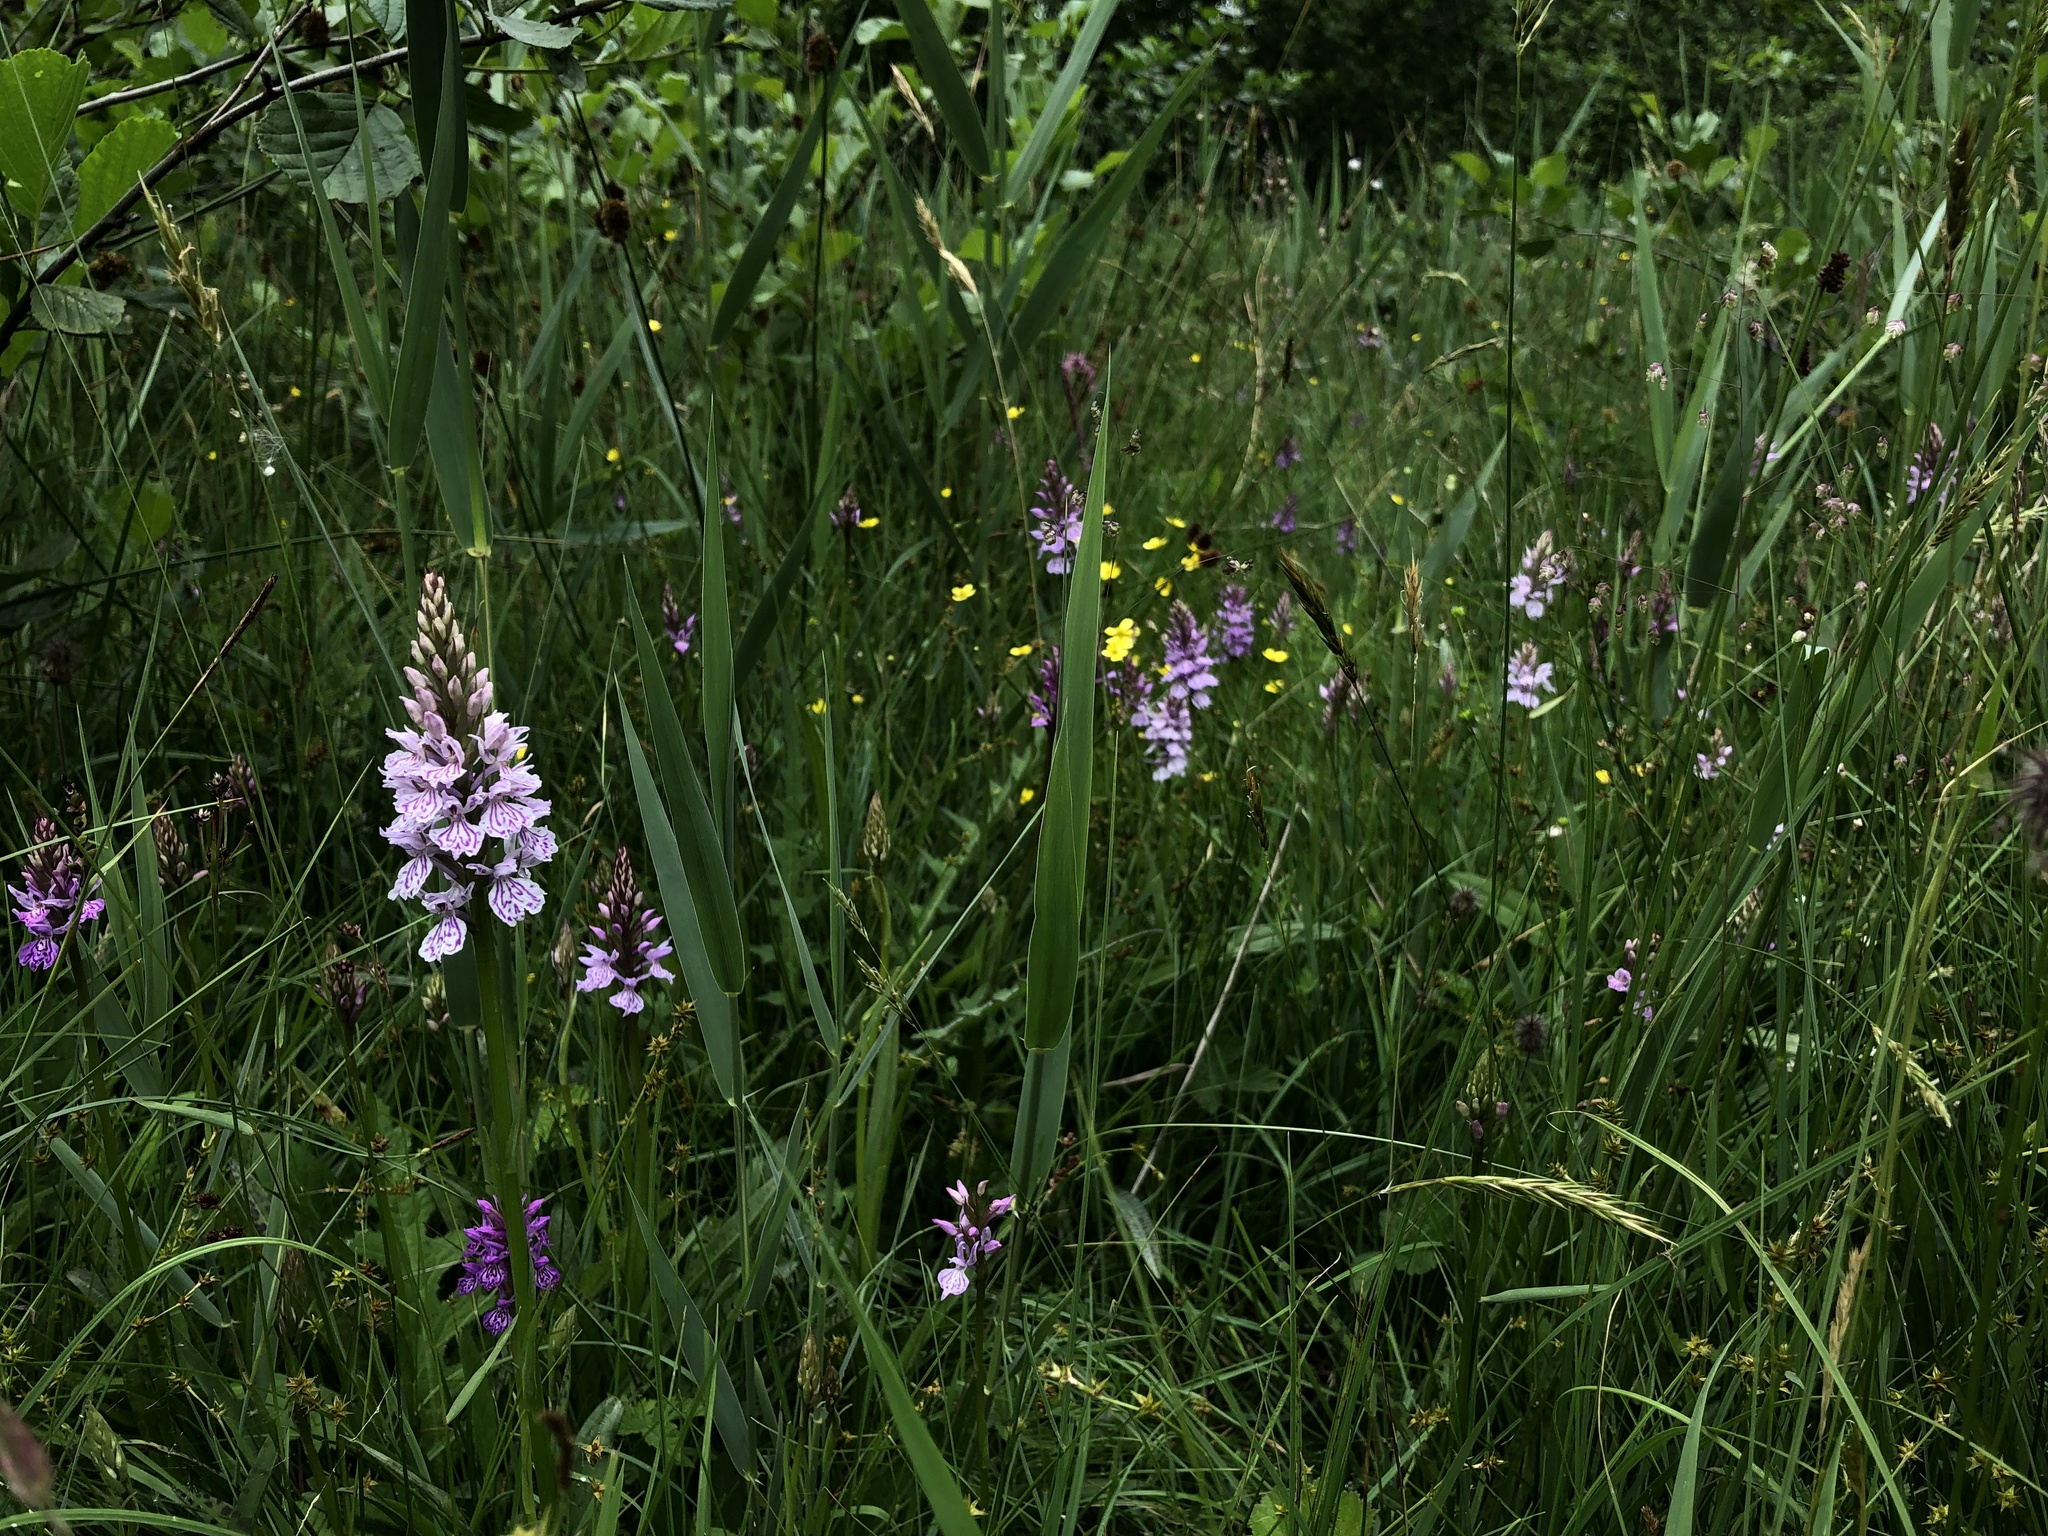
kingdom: Plantae
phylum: Tracheophyta
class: Liliopsida
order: Asparagales
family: Orchidaceae
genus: Dactylorhiza
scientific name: Dactylorhiza maculata
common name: Heath spotted-orchid
